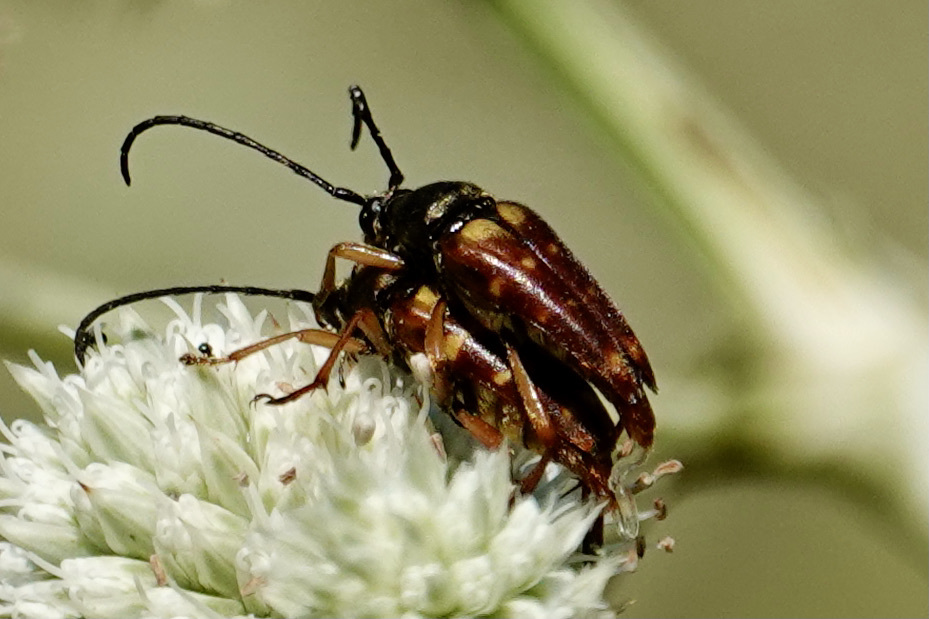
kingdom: Animalia
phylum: Arthropoda
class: Insecta
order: Coleoptera
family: Cerambycidae
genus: Typocerus
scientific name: Typocerus velutinus
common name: Banded longhorn beetle
